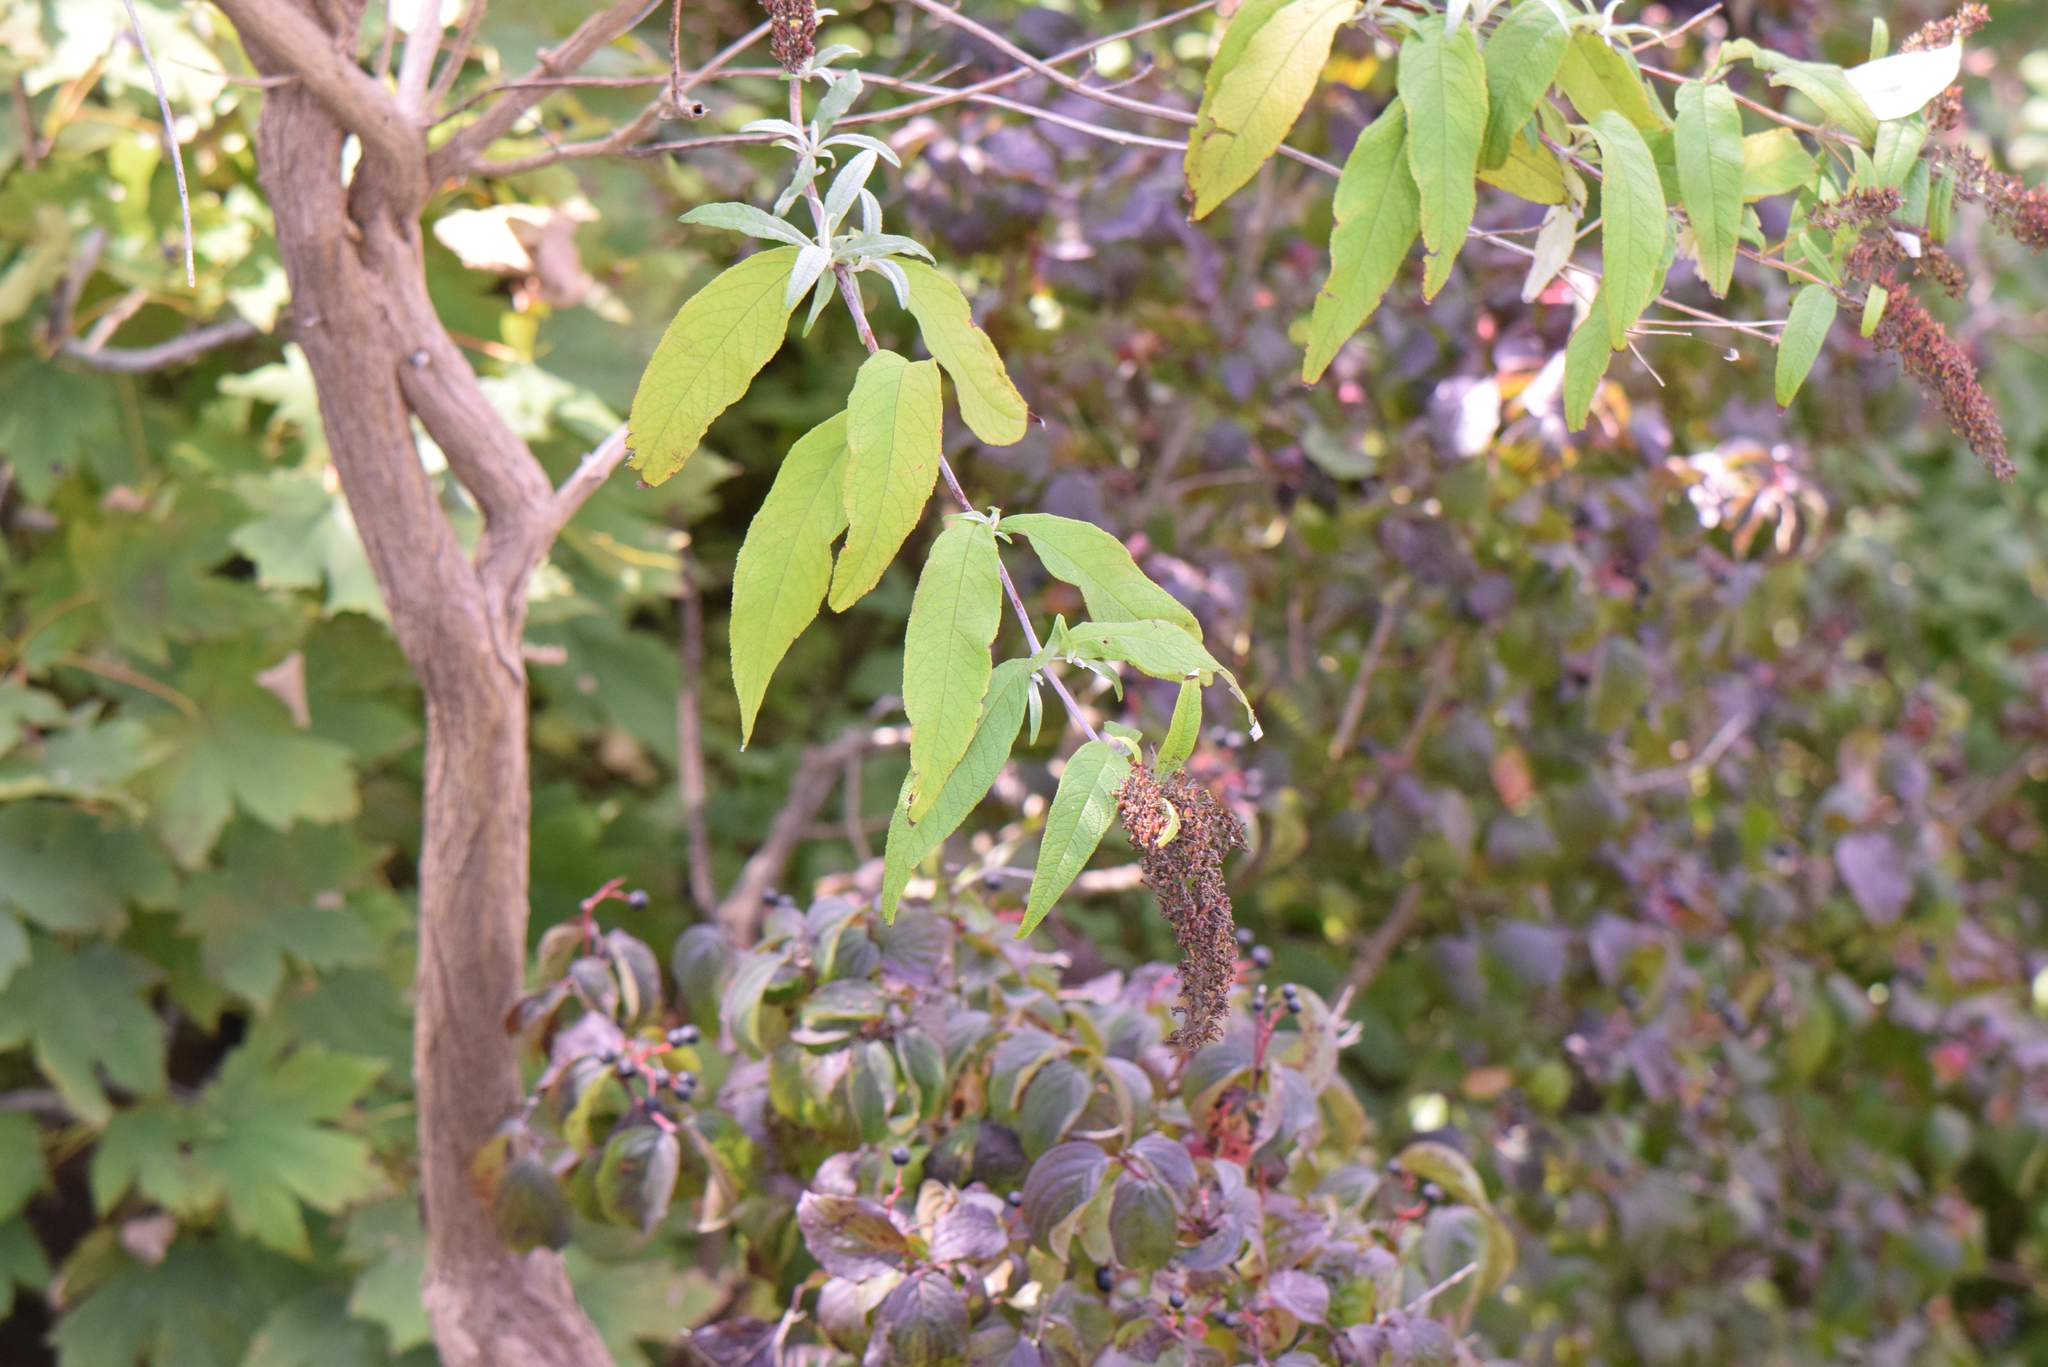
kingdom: Plantae
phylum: Tracheophyta
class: Magnoliopsida
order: Lamiales
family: Scrophulariaceae
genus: Buddleja
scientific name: Buddleja davidii
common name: Butterfly-bush
